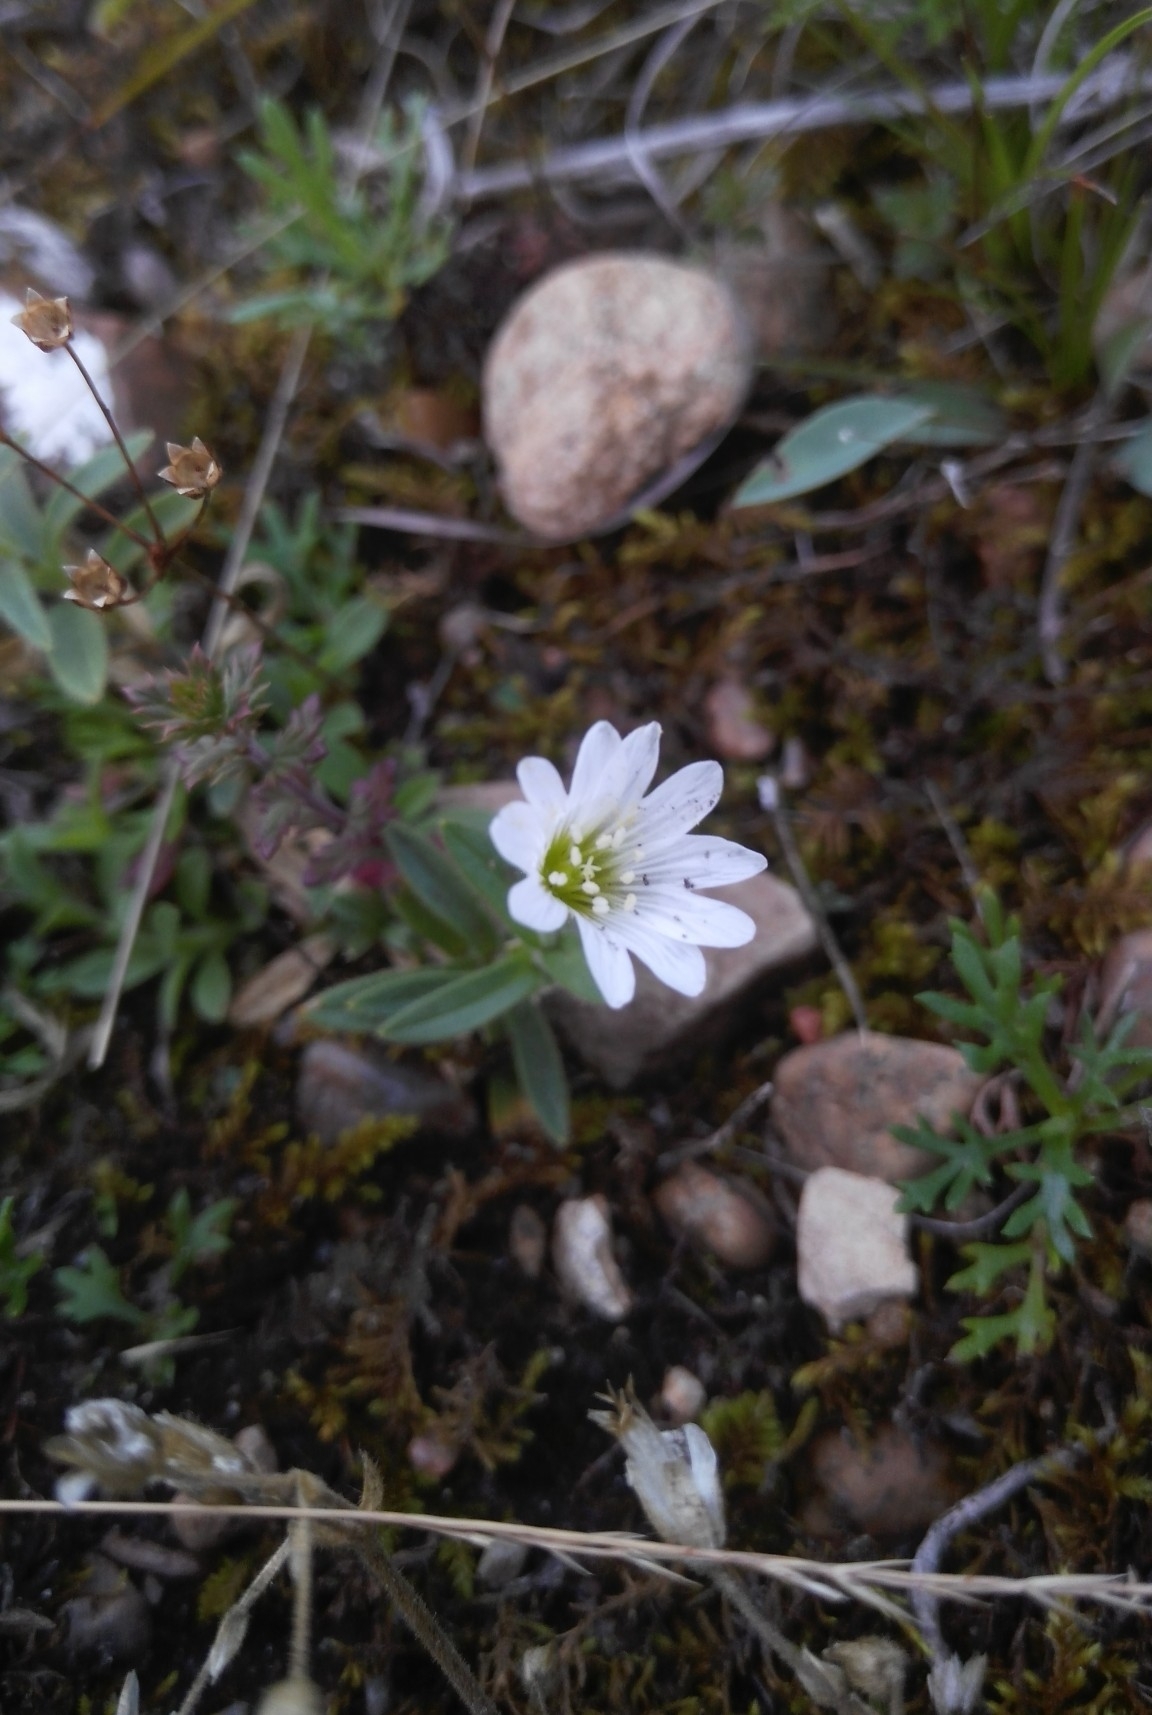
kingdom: Plantae
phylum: Tracheophyta
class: Magnoliopsida
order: Caryophyllales
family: Caryophyllaceae
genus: Cerastium
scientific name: Cerastium arvense
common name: Field mouse-ear
